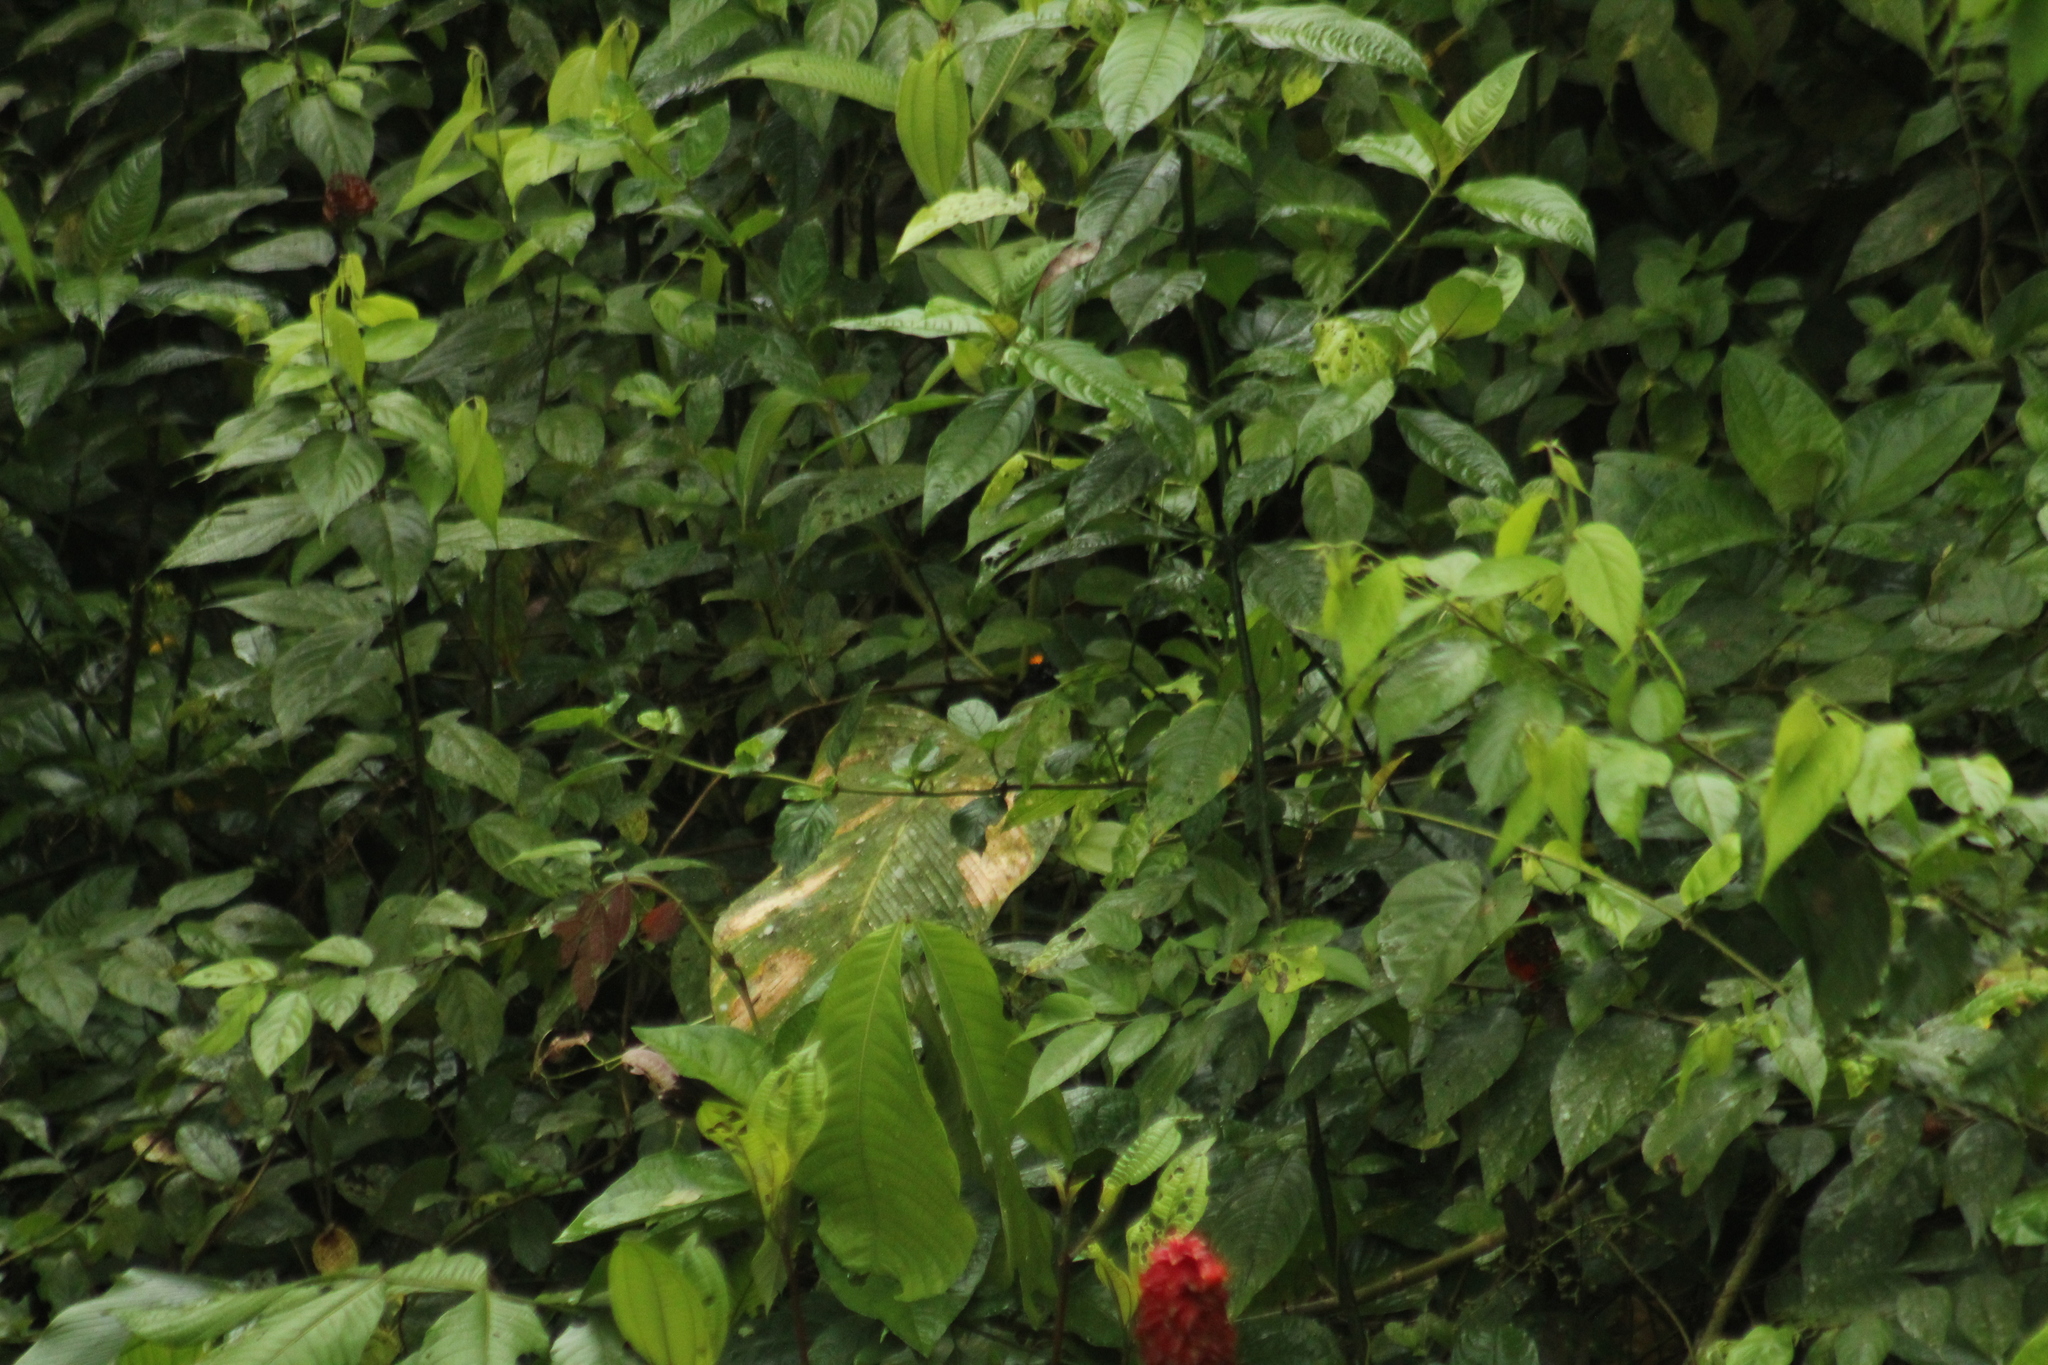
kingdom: Animalia
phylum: Chordata
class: Aves
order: Passeriformes
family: Thraupidae
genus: Tachyphonus
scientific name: Tachyphonus delatrii
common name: Tawny-crested tanager
